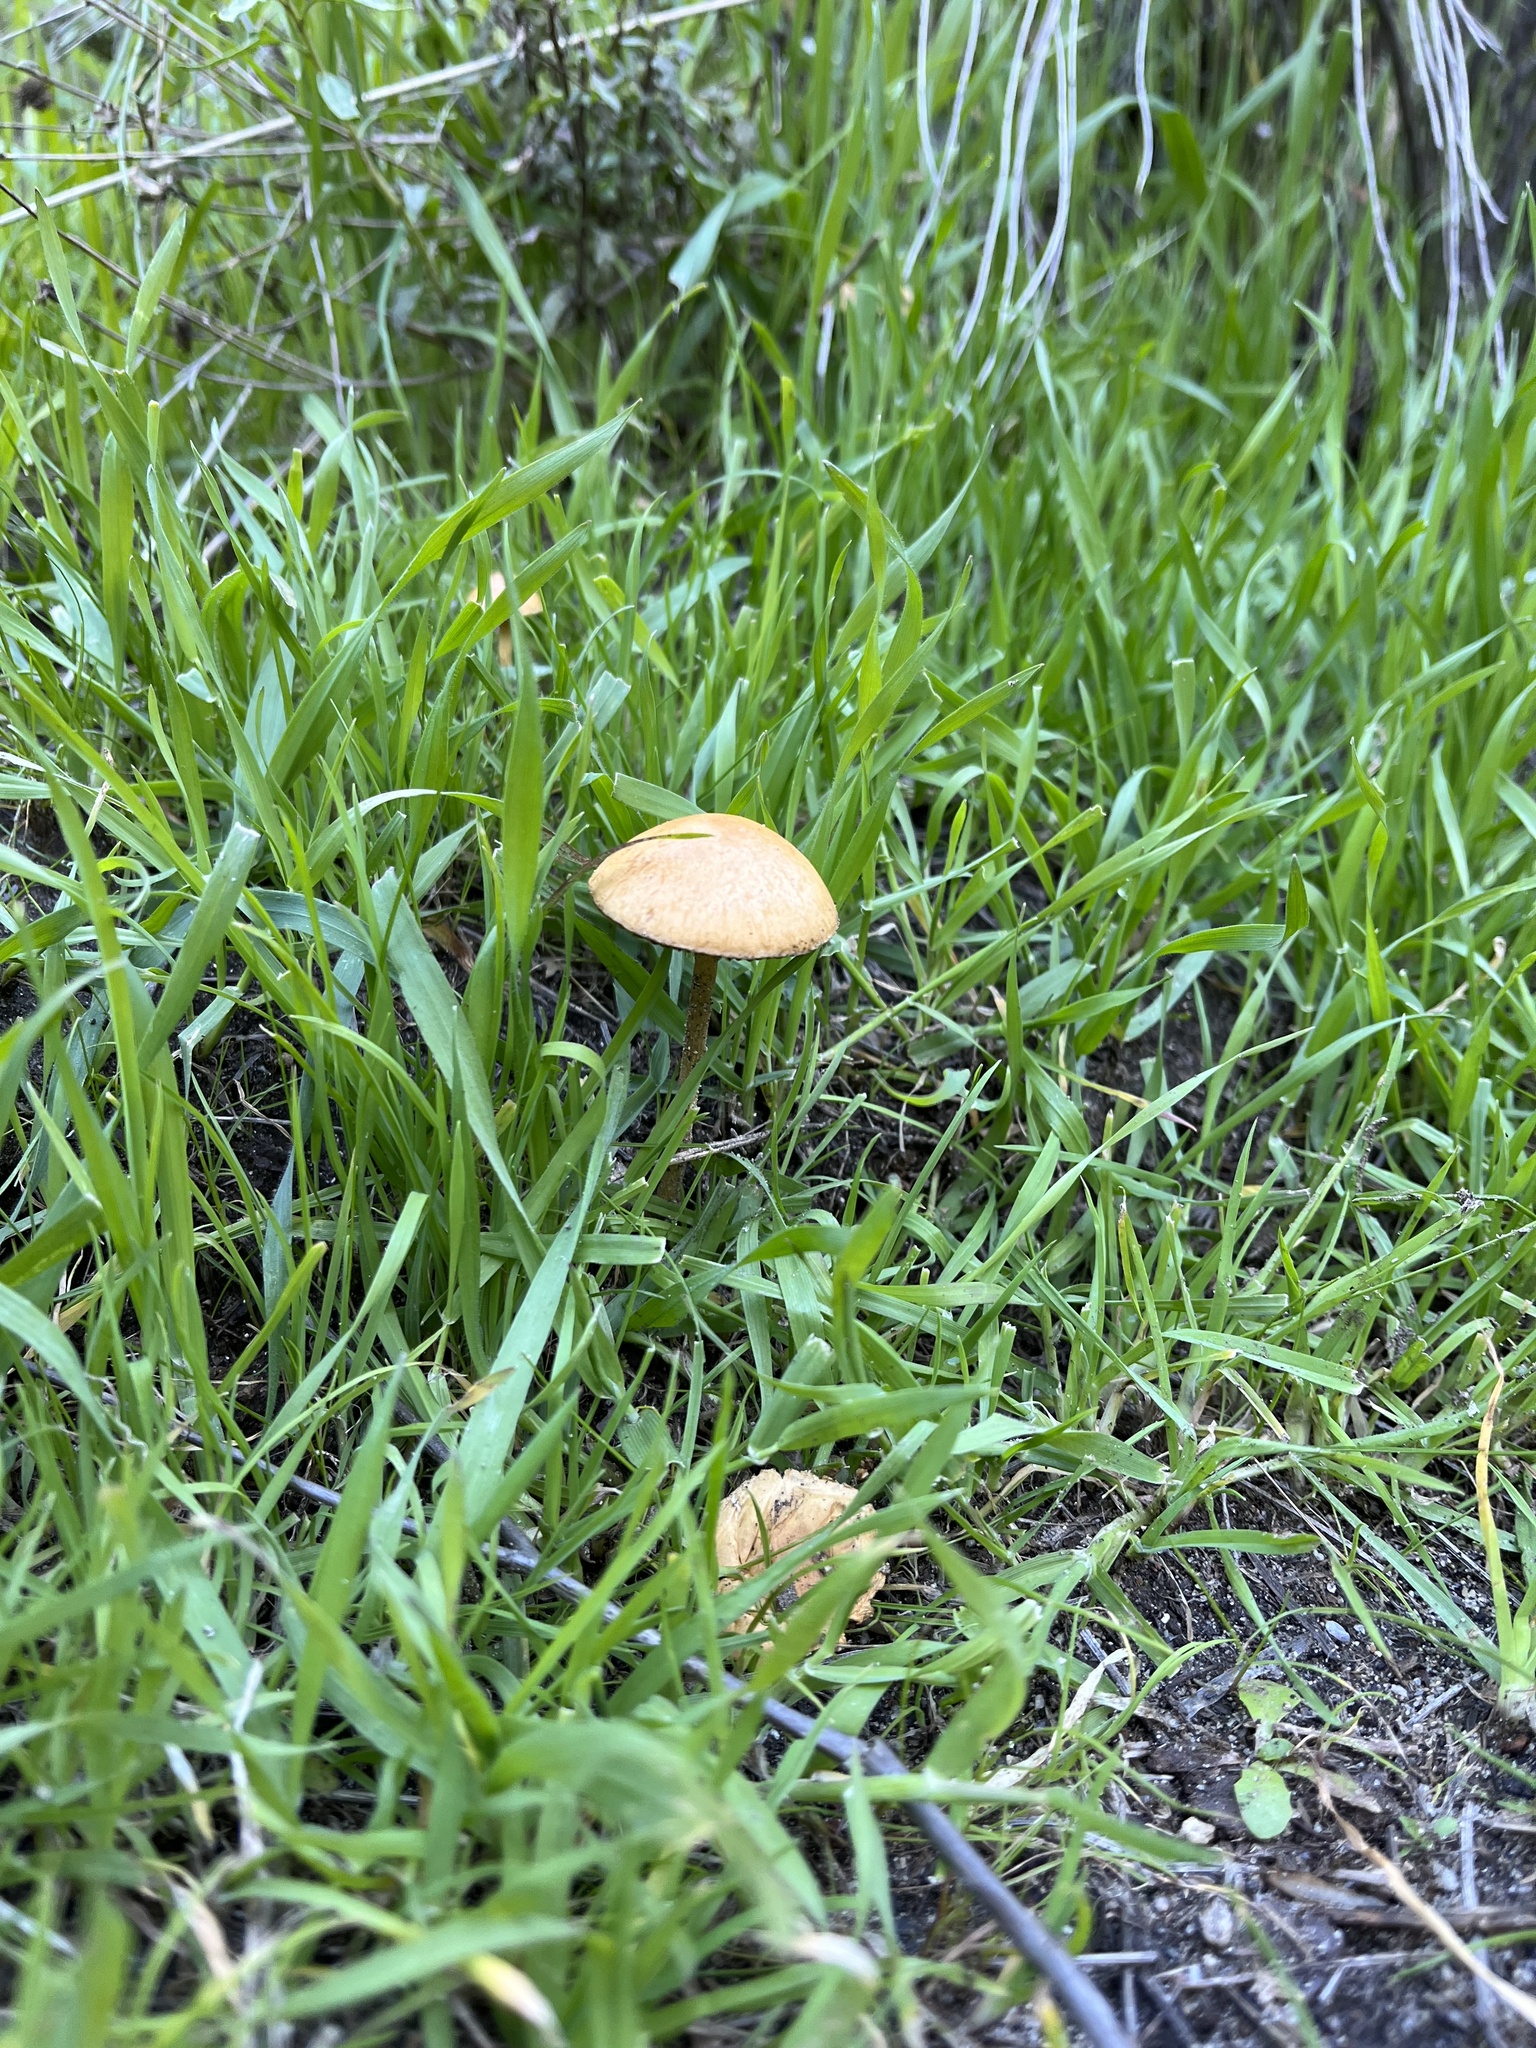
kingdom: Fungi
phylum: Basidiomycota
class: Agaricomycetes
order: Agaricales
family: Strophariaceae
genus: Agrocybe
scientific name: Agrocybe pediades
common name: Common fieldcap
